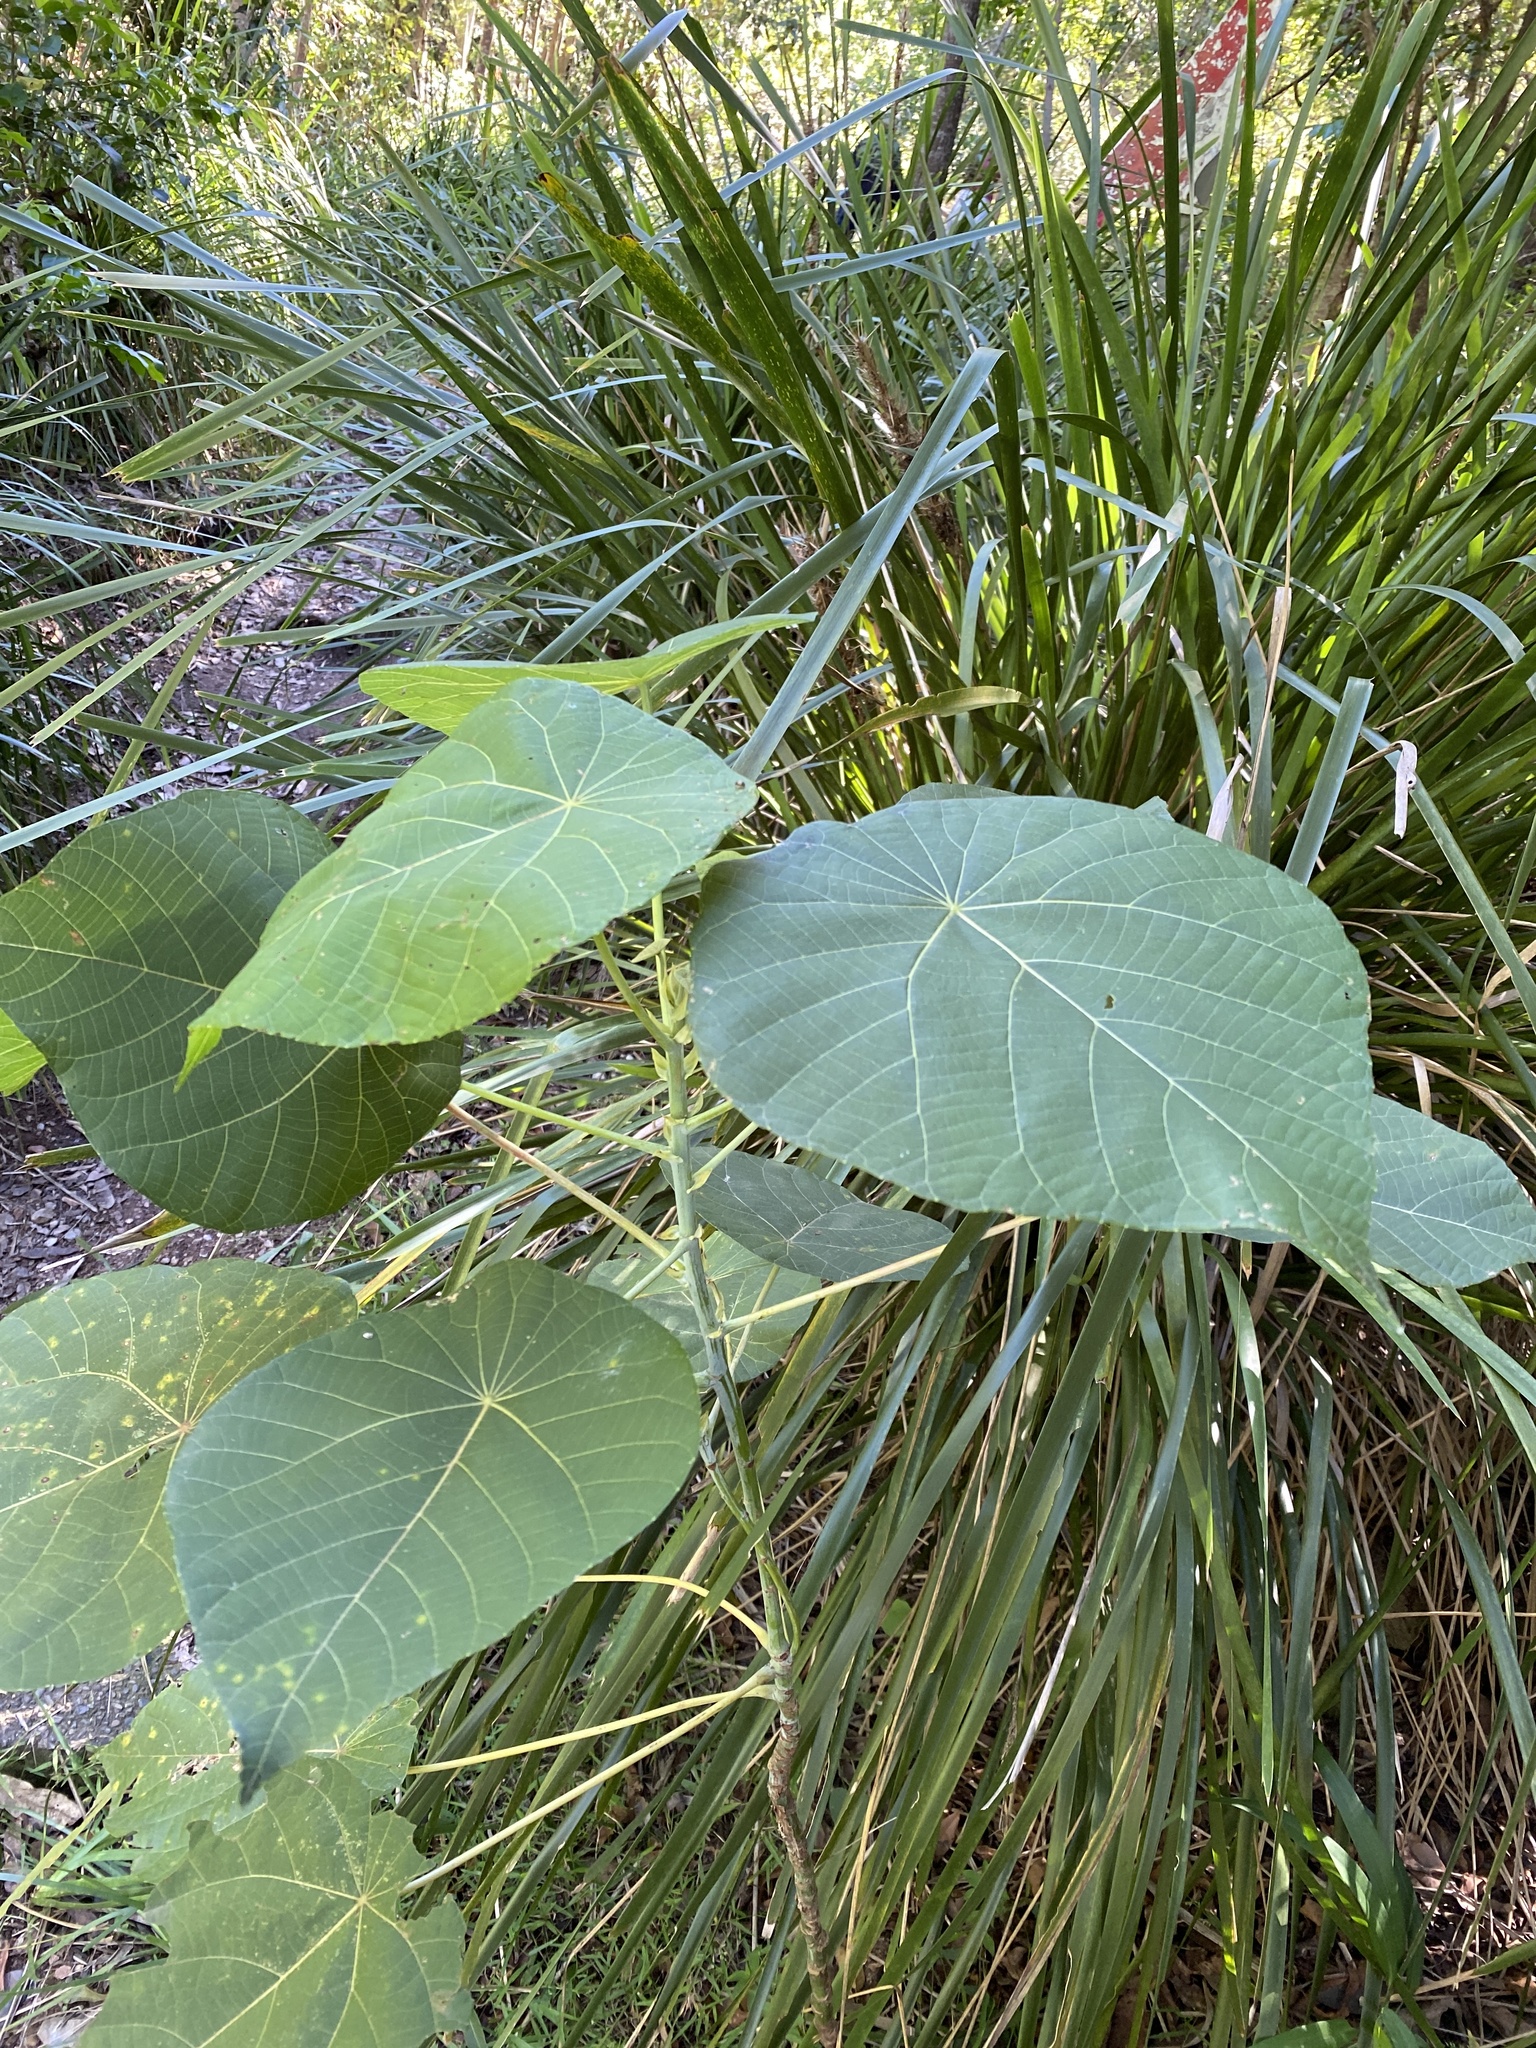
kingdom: Plantae
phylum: Tracheophyta
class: Magnoliopsida
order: Malpighiales
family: Euphorbiaceae
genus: Macaranga
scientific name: Macaranga tanarius
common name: Parasol leaf tree
